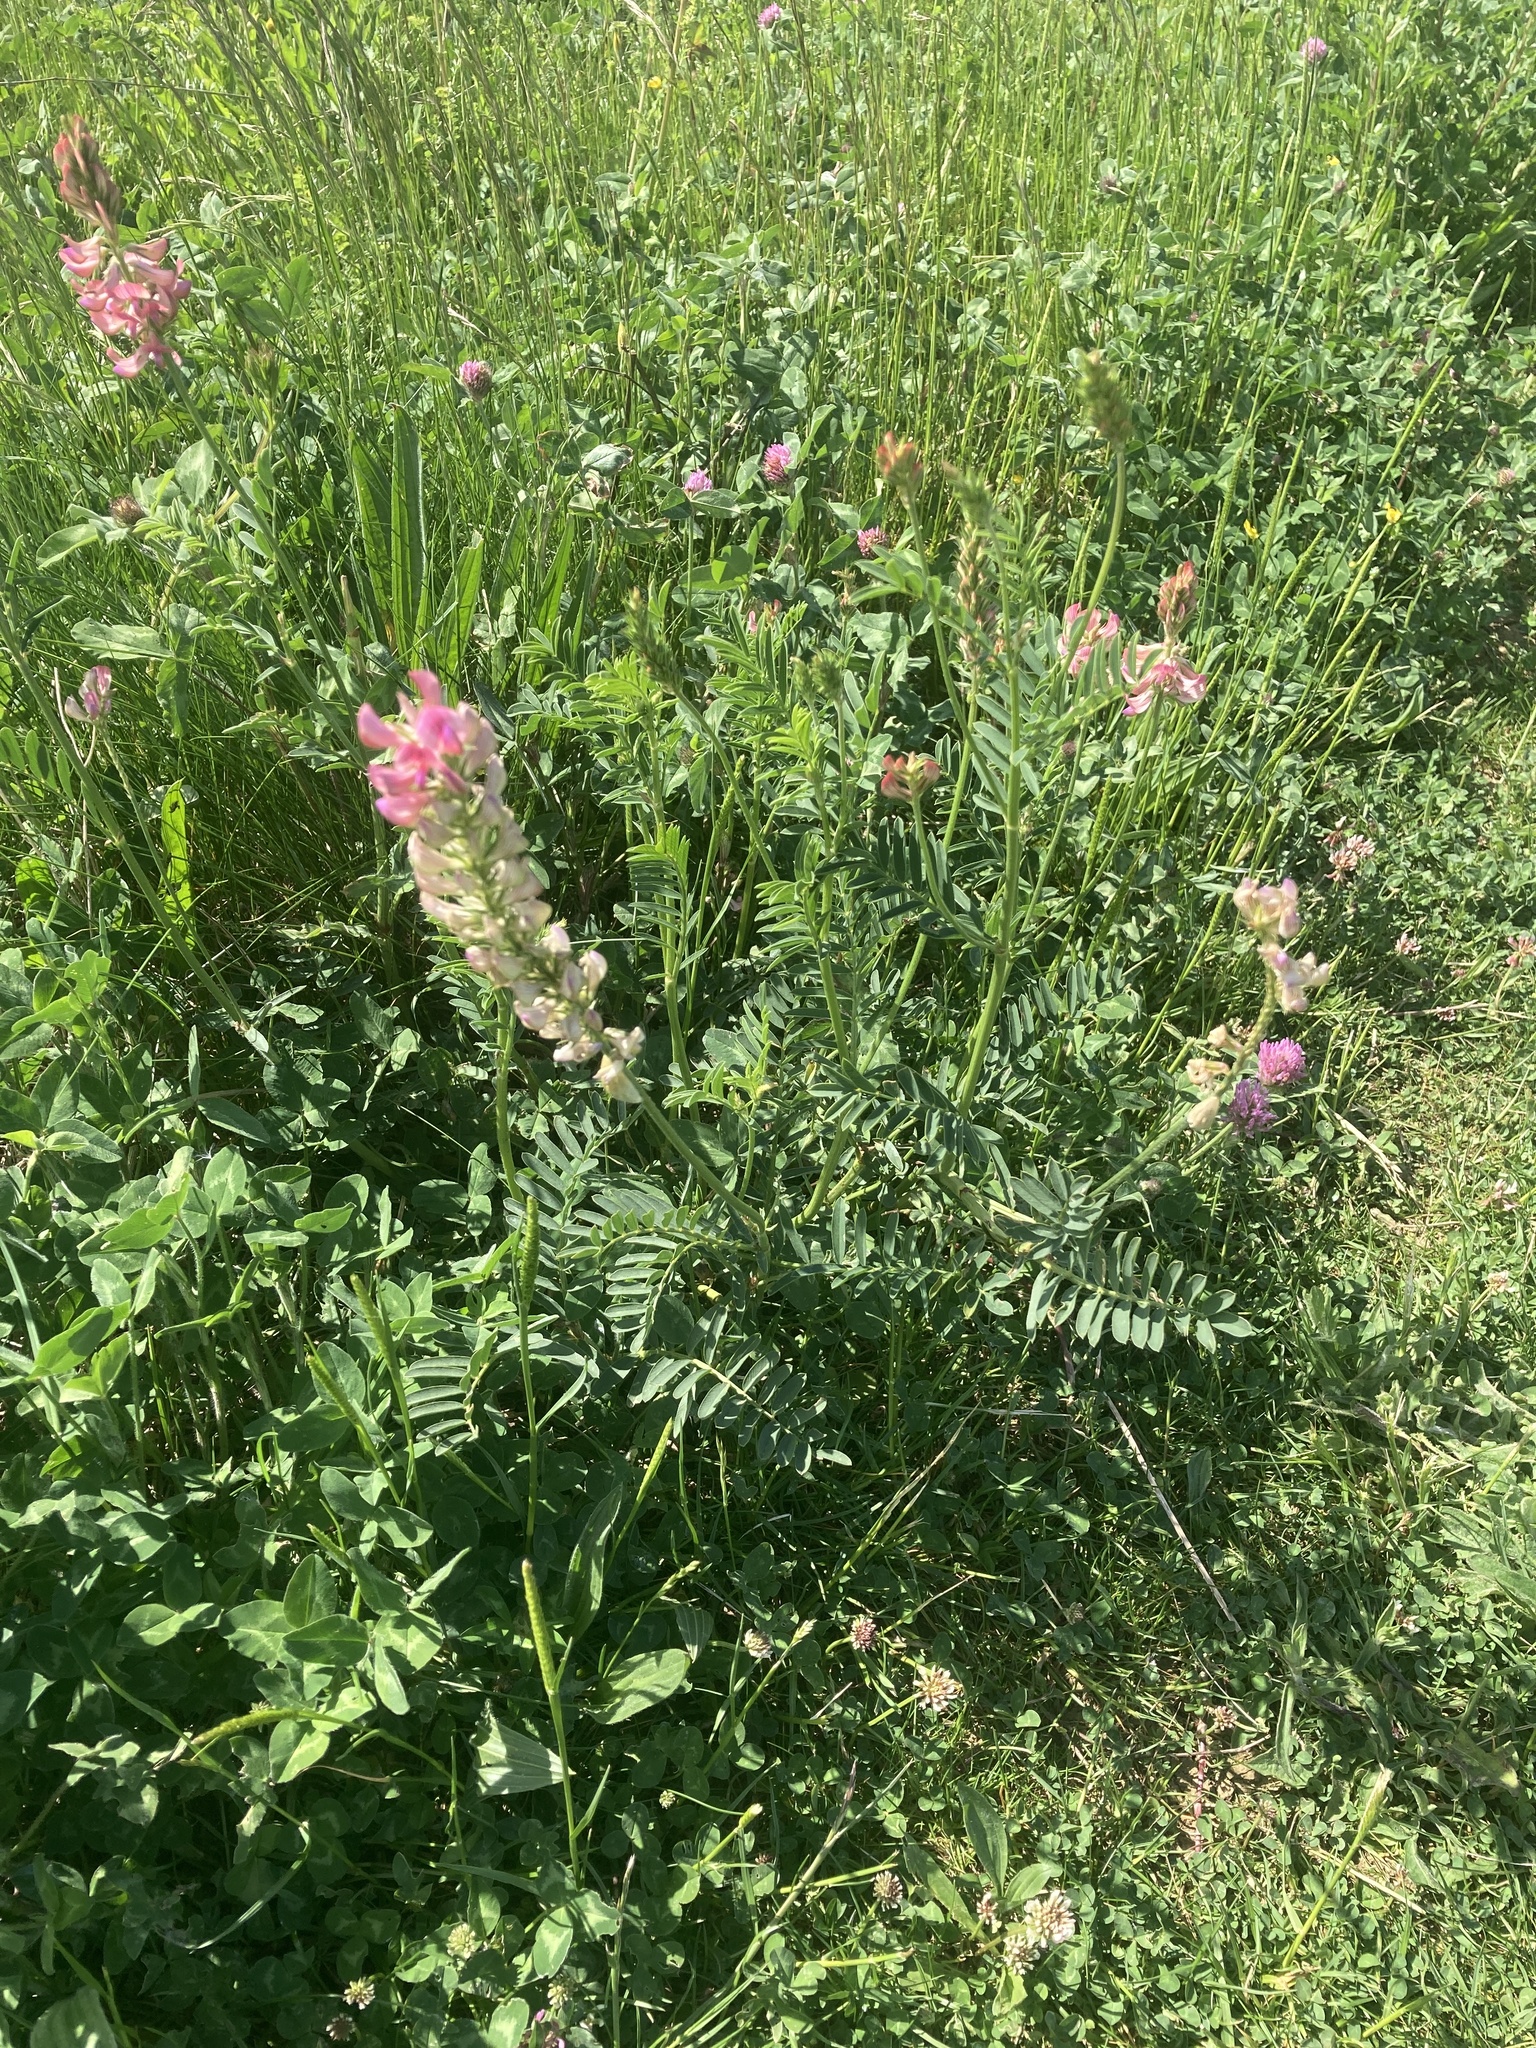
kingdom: Plantae
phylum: Tracheophyta
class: Magnoliopsida
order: Fabales
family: Fabaceae
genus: Onobrychis
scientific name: Onobrychis viciifolia
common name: Sainfoin
